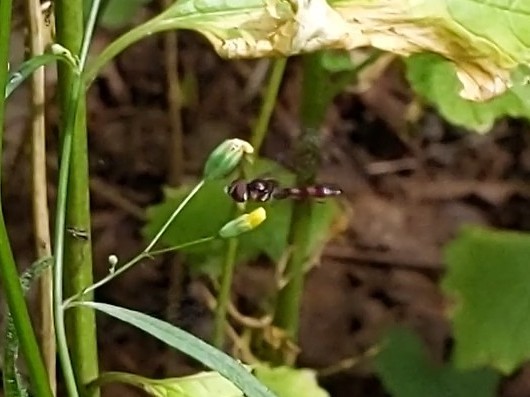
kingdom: Animalia
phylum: Arthropoda
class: Insecta
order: Diptera
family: Syrphidae
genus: Ocyptamus
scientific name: Ocyptamus fuscipennis
